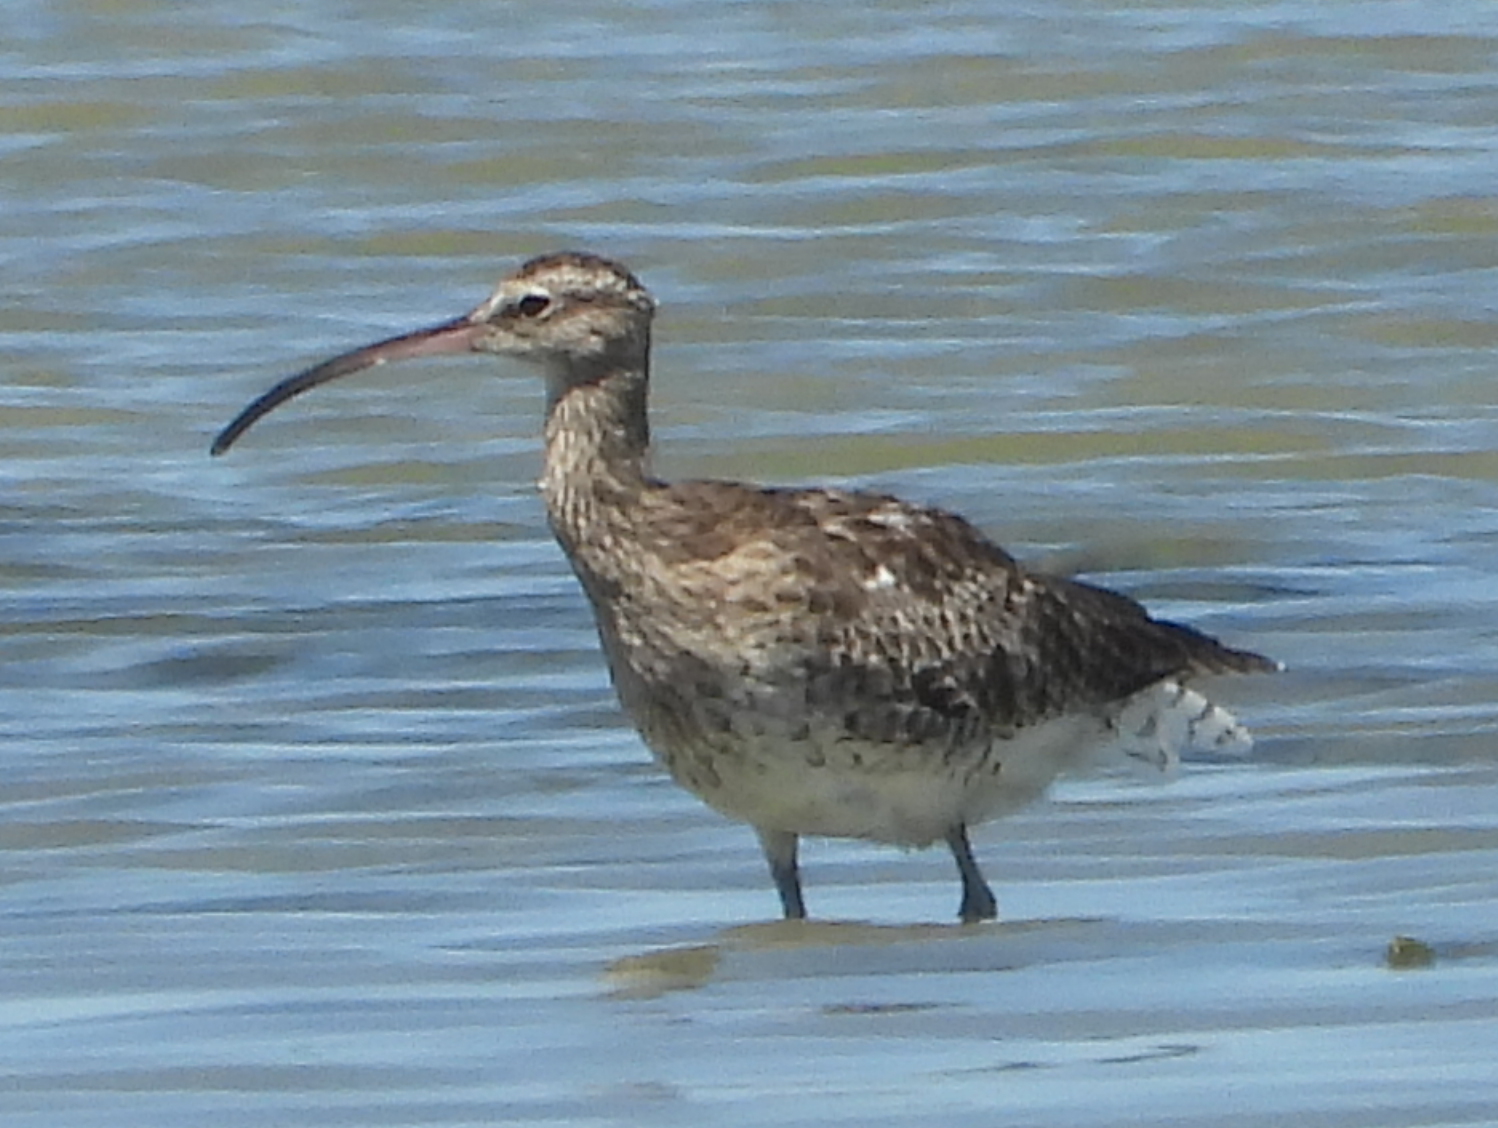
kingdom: Animalia
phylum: Chordata
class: Aves
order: Charadriiformes
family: Scolopacidae
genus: Numenius
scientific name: Numenius phaeopus
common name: Whimbrel
